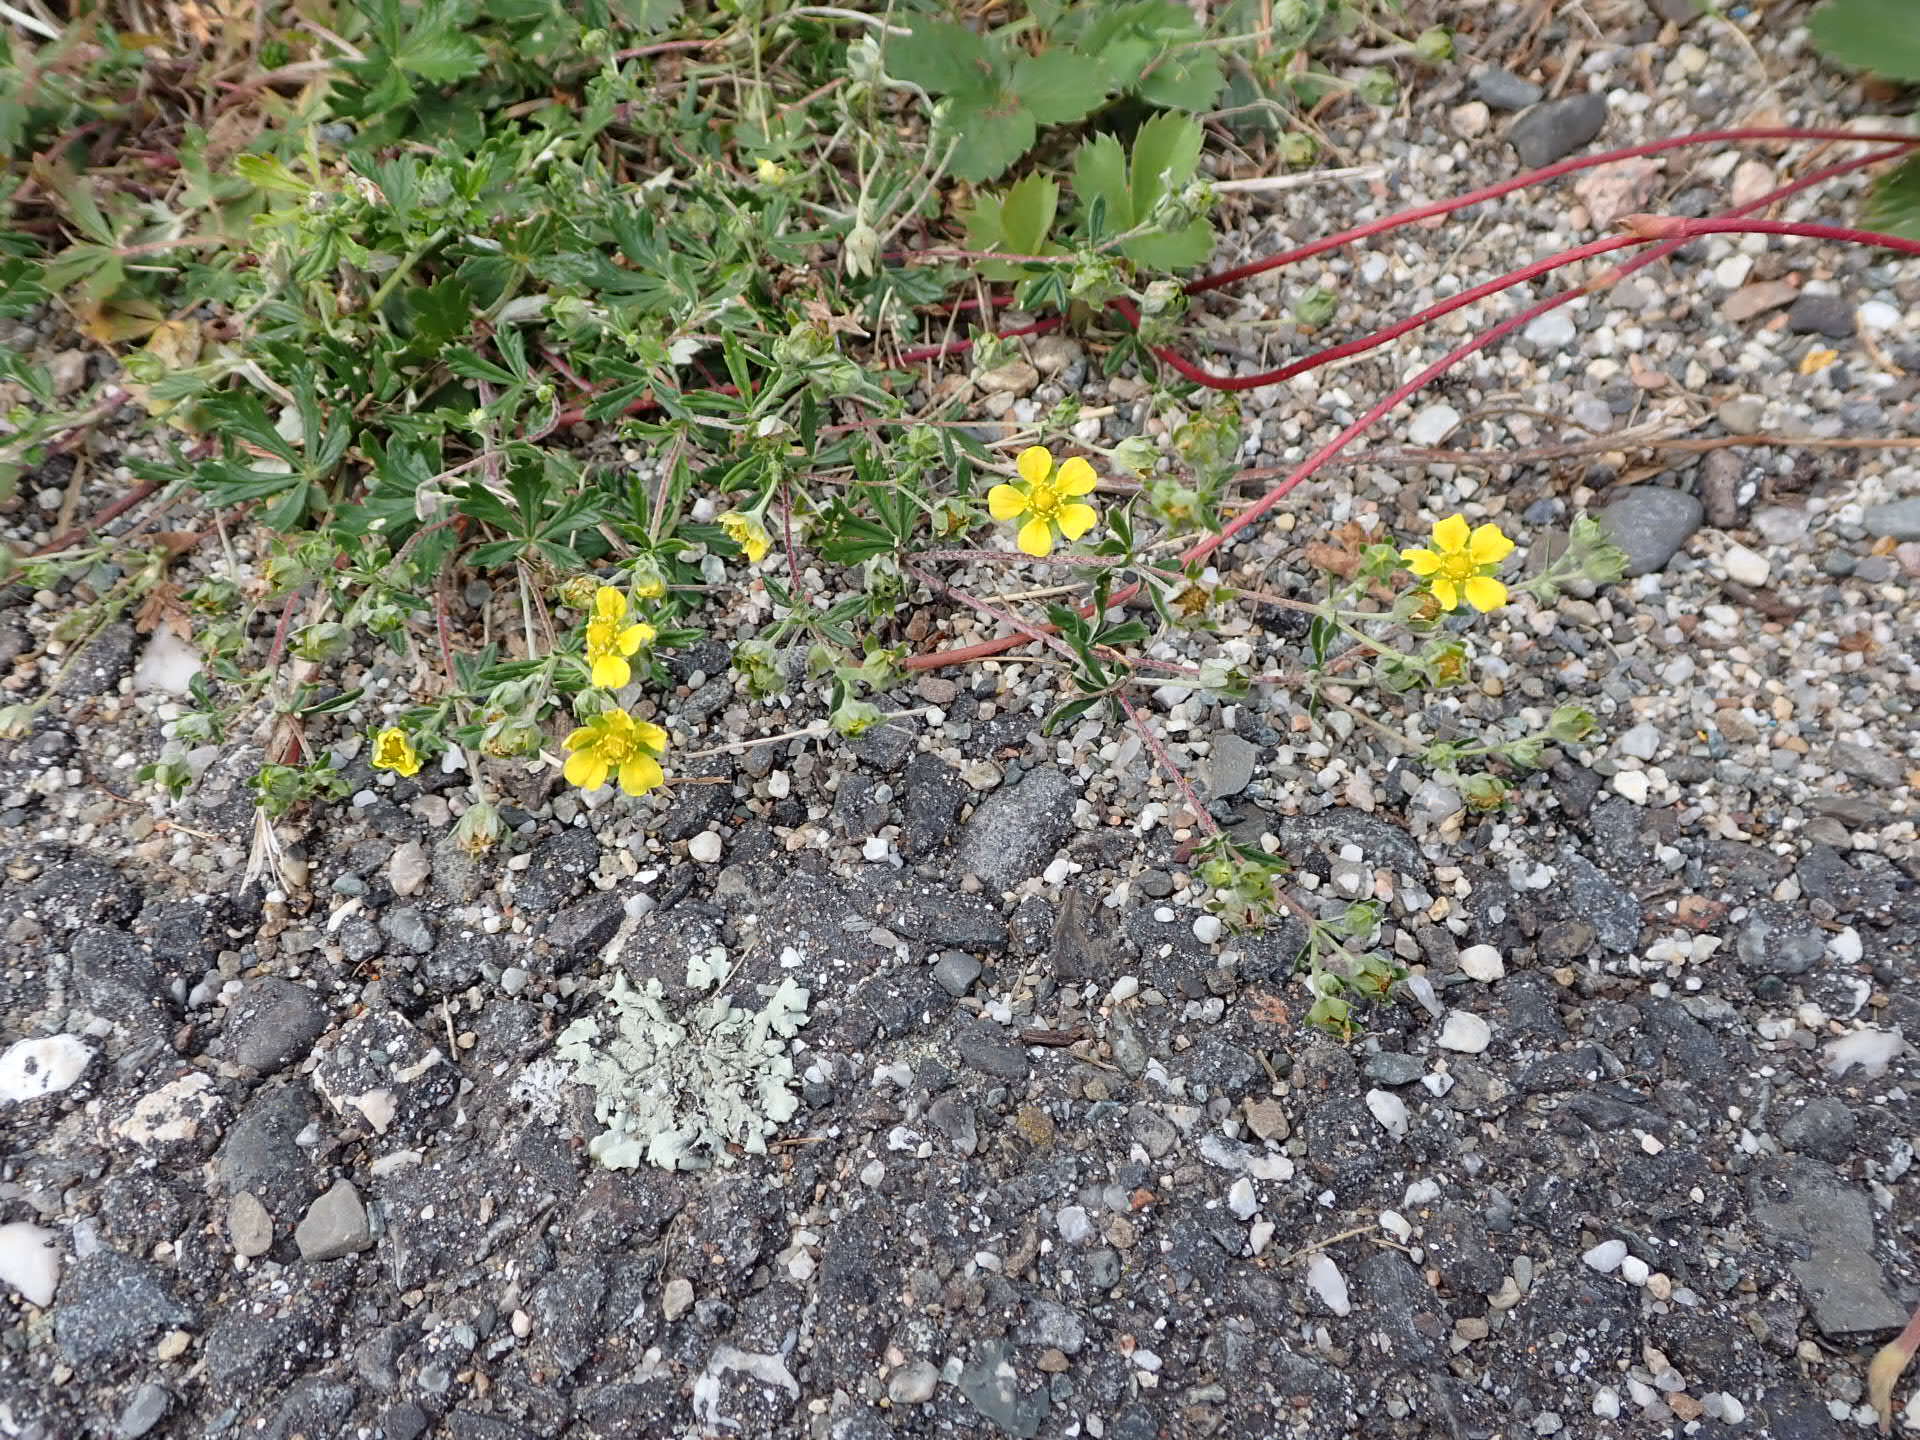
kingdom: Plantae
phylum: Tracheophyta
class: Magnoliopsida
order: Rosales
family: Rosaceae
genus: Potentilla
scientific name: Potentilla argentea
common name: Hoary cinquefoil
